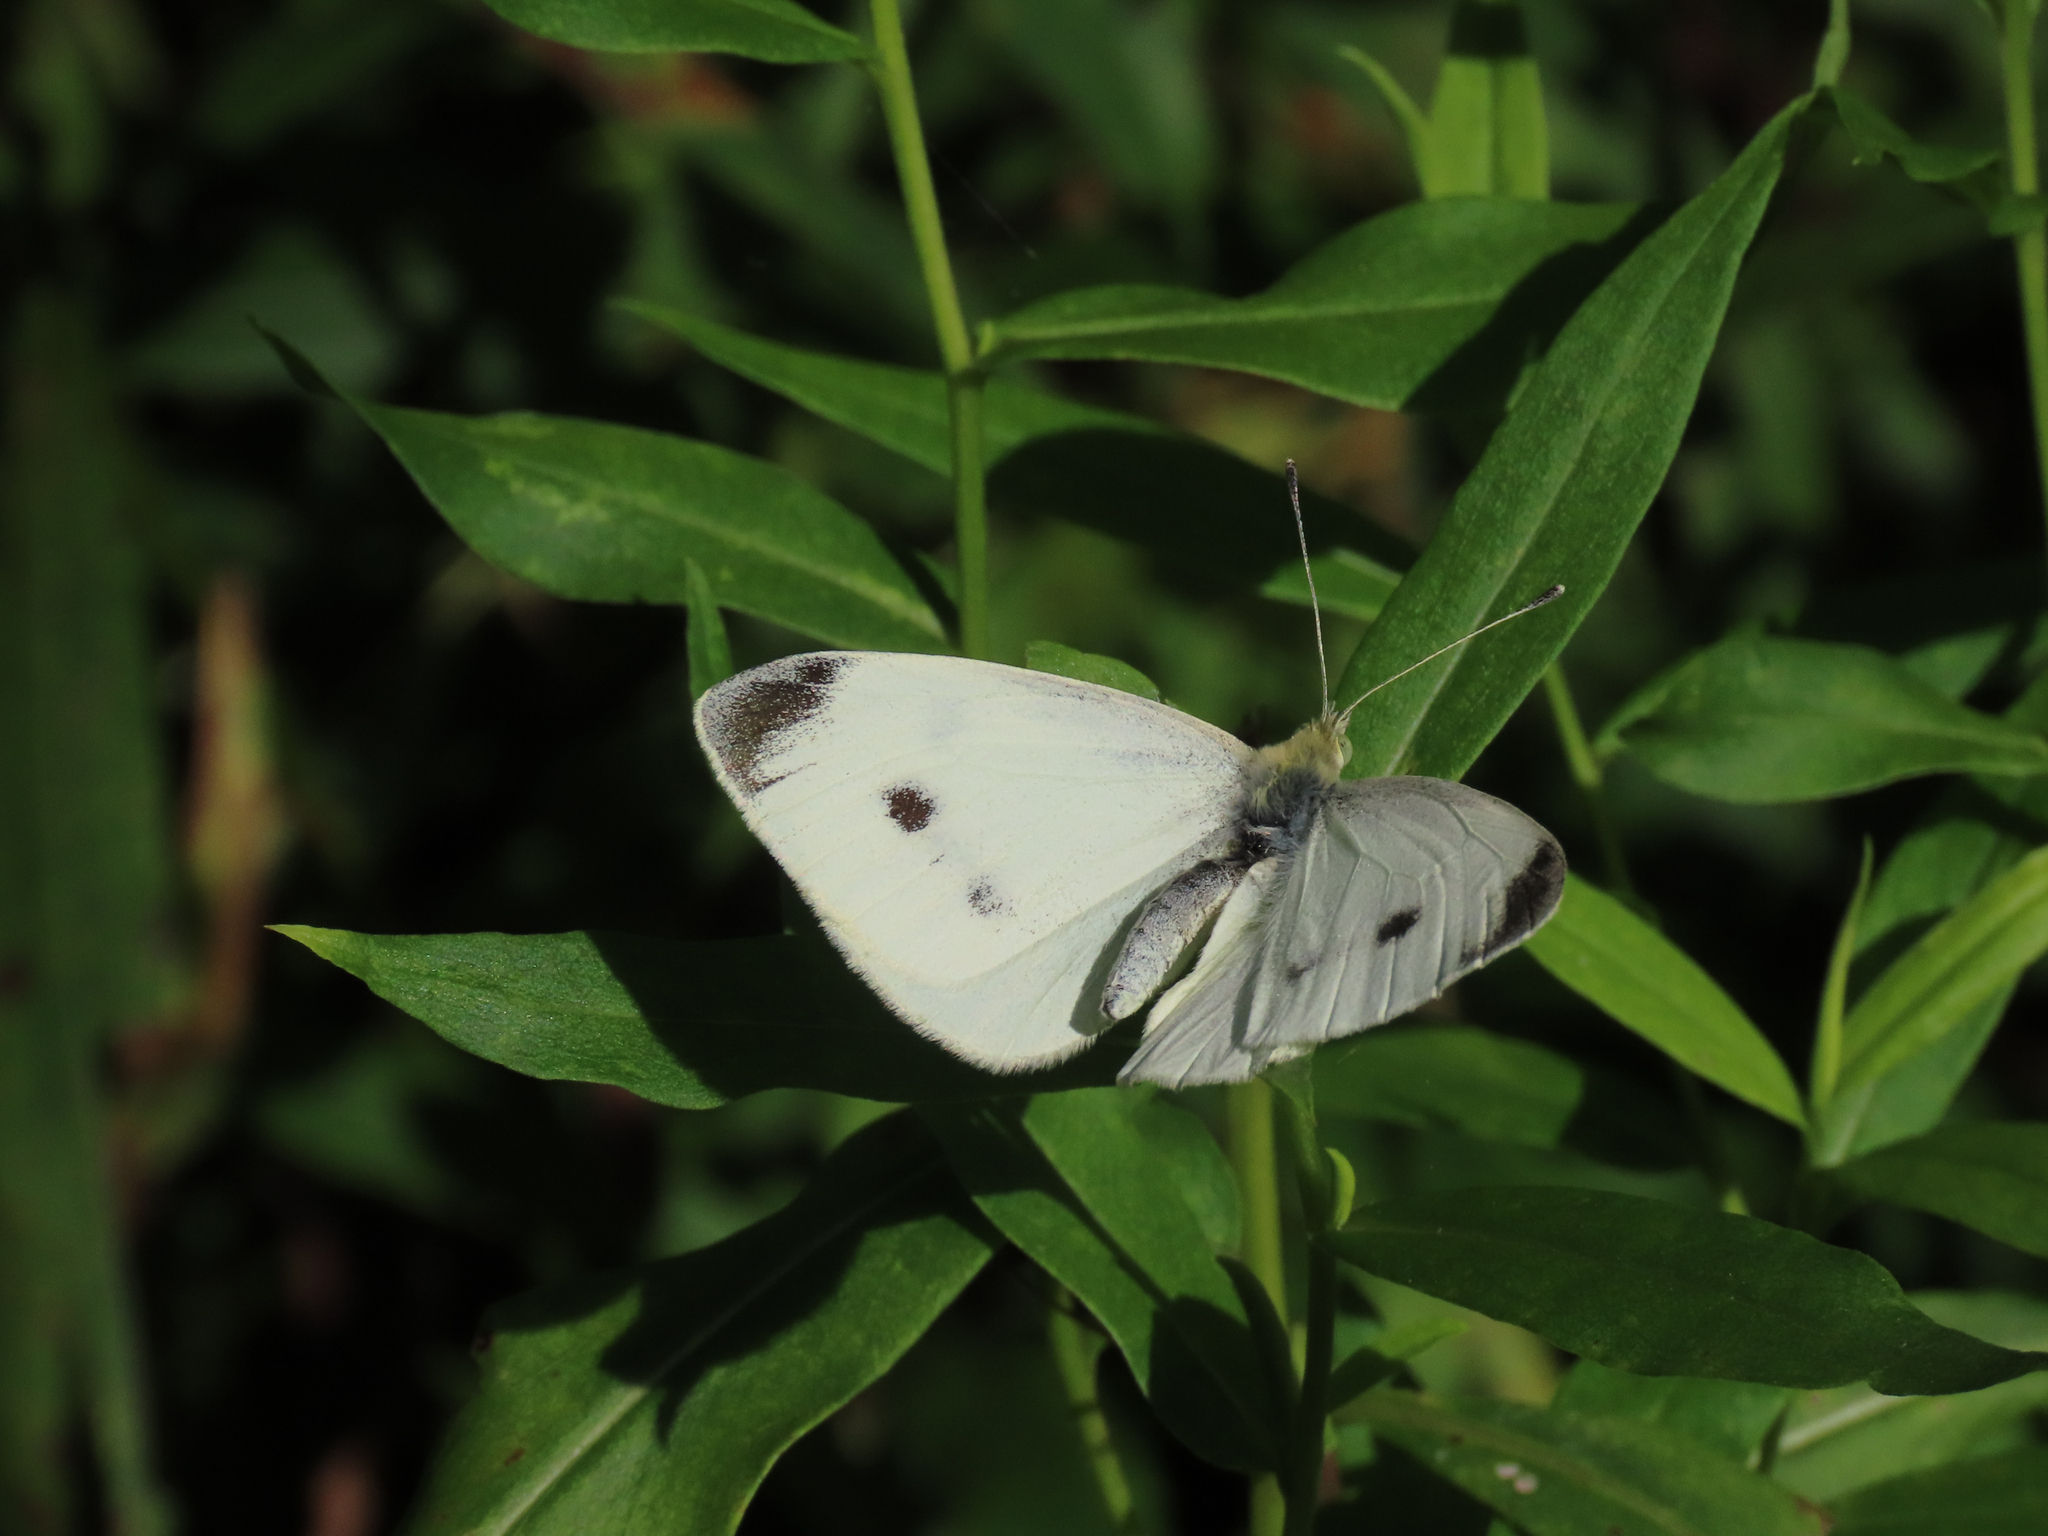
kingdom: Animalia
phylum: Arthropoda
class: Insecta
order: Lepidoptera
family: Pieridae
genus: Pieris
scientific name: Pieris rapae
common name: Small white
